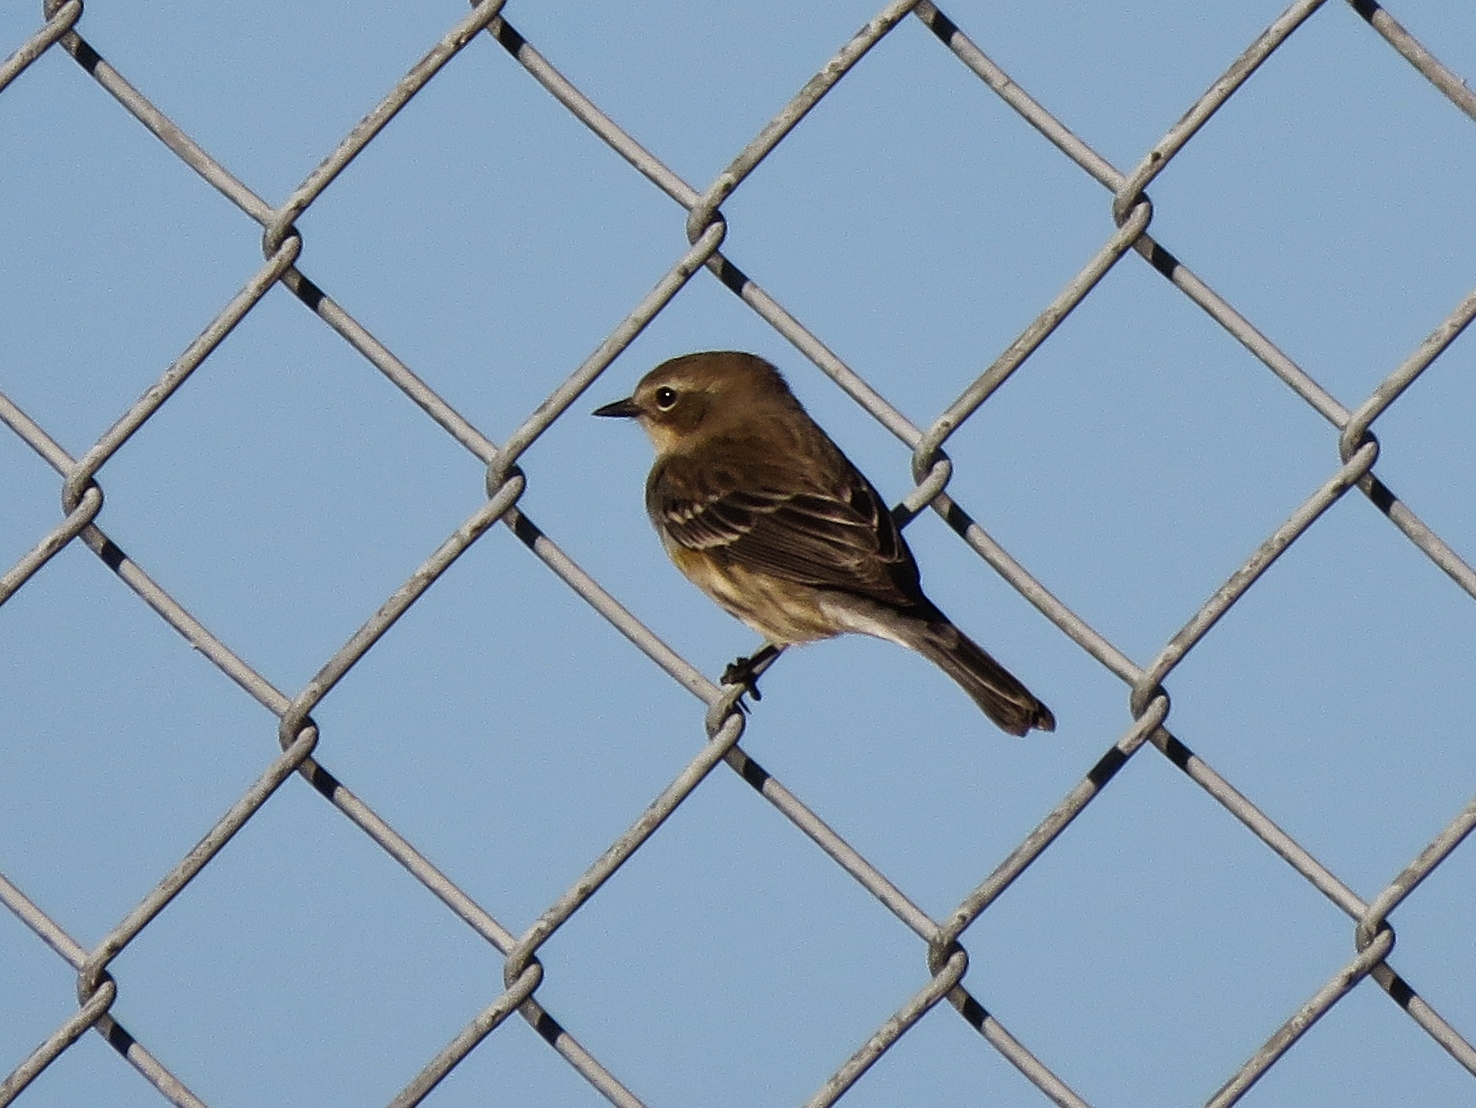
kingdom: Animalia
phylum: Chordata
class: Aves
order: Passeriformes
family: Parulidae
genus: Setophaga
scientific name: Setophaga coronata
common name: Myrtle warbler
